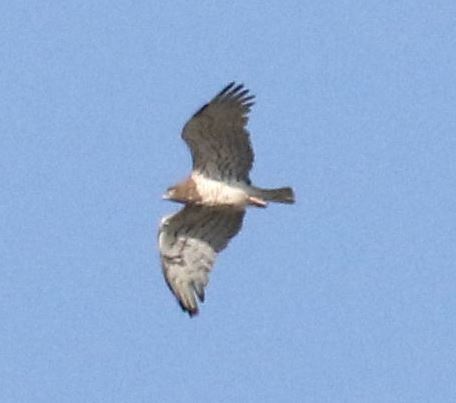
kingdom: Animalia
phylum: Chordata
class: Aves
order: Accipitriformes
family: Accipitridae
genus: Circaetus
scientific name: Circaetus gallicus
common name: Short-toed snake eagle
